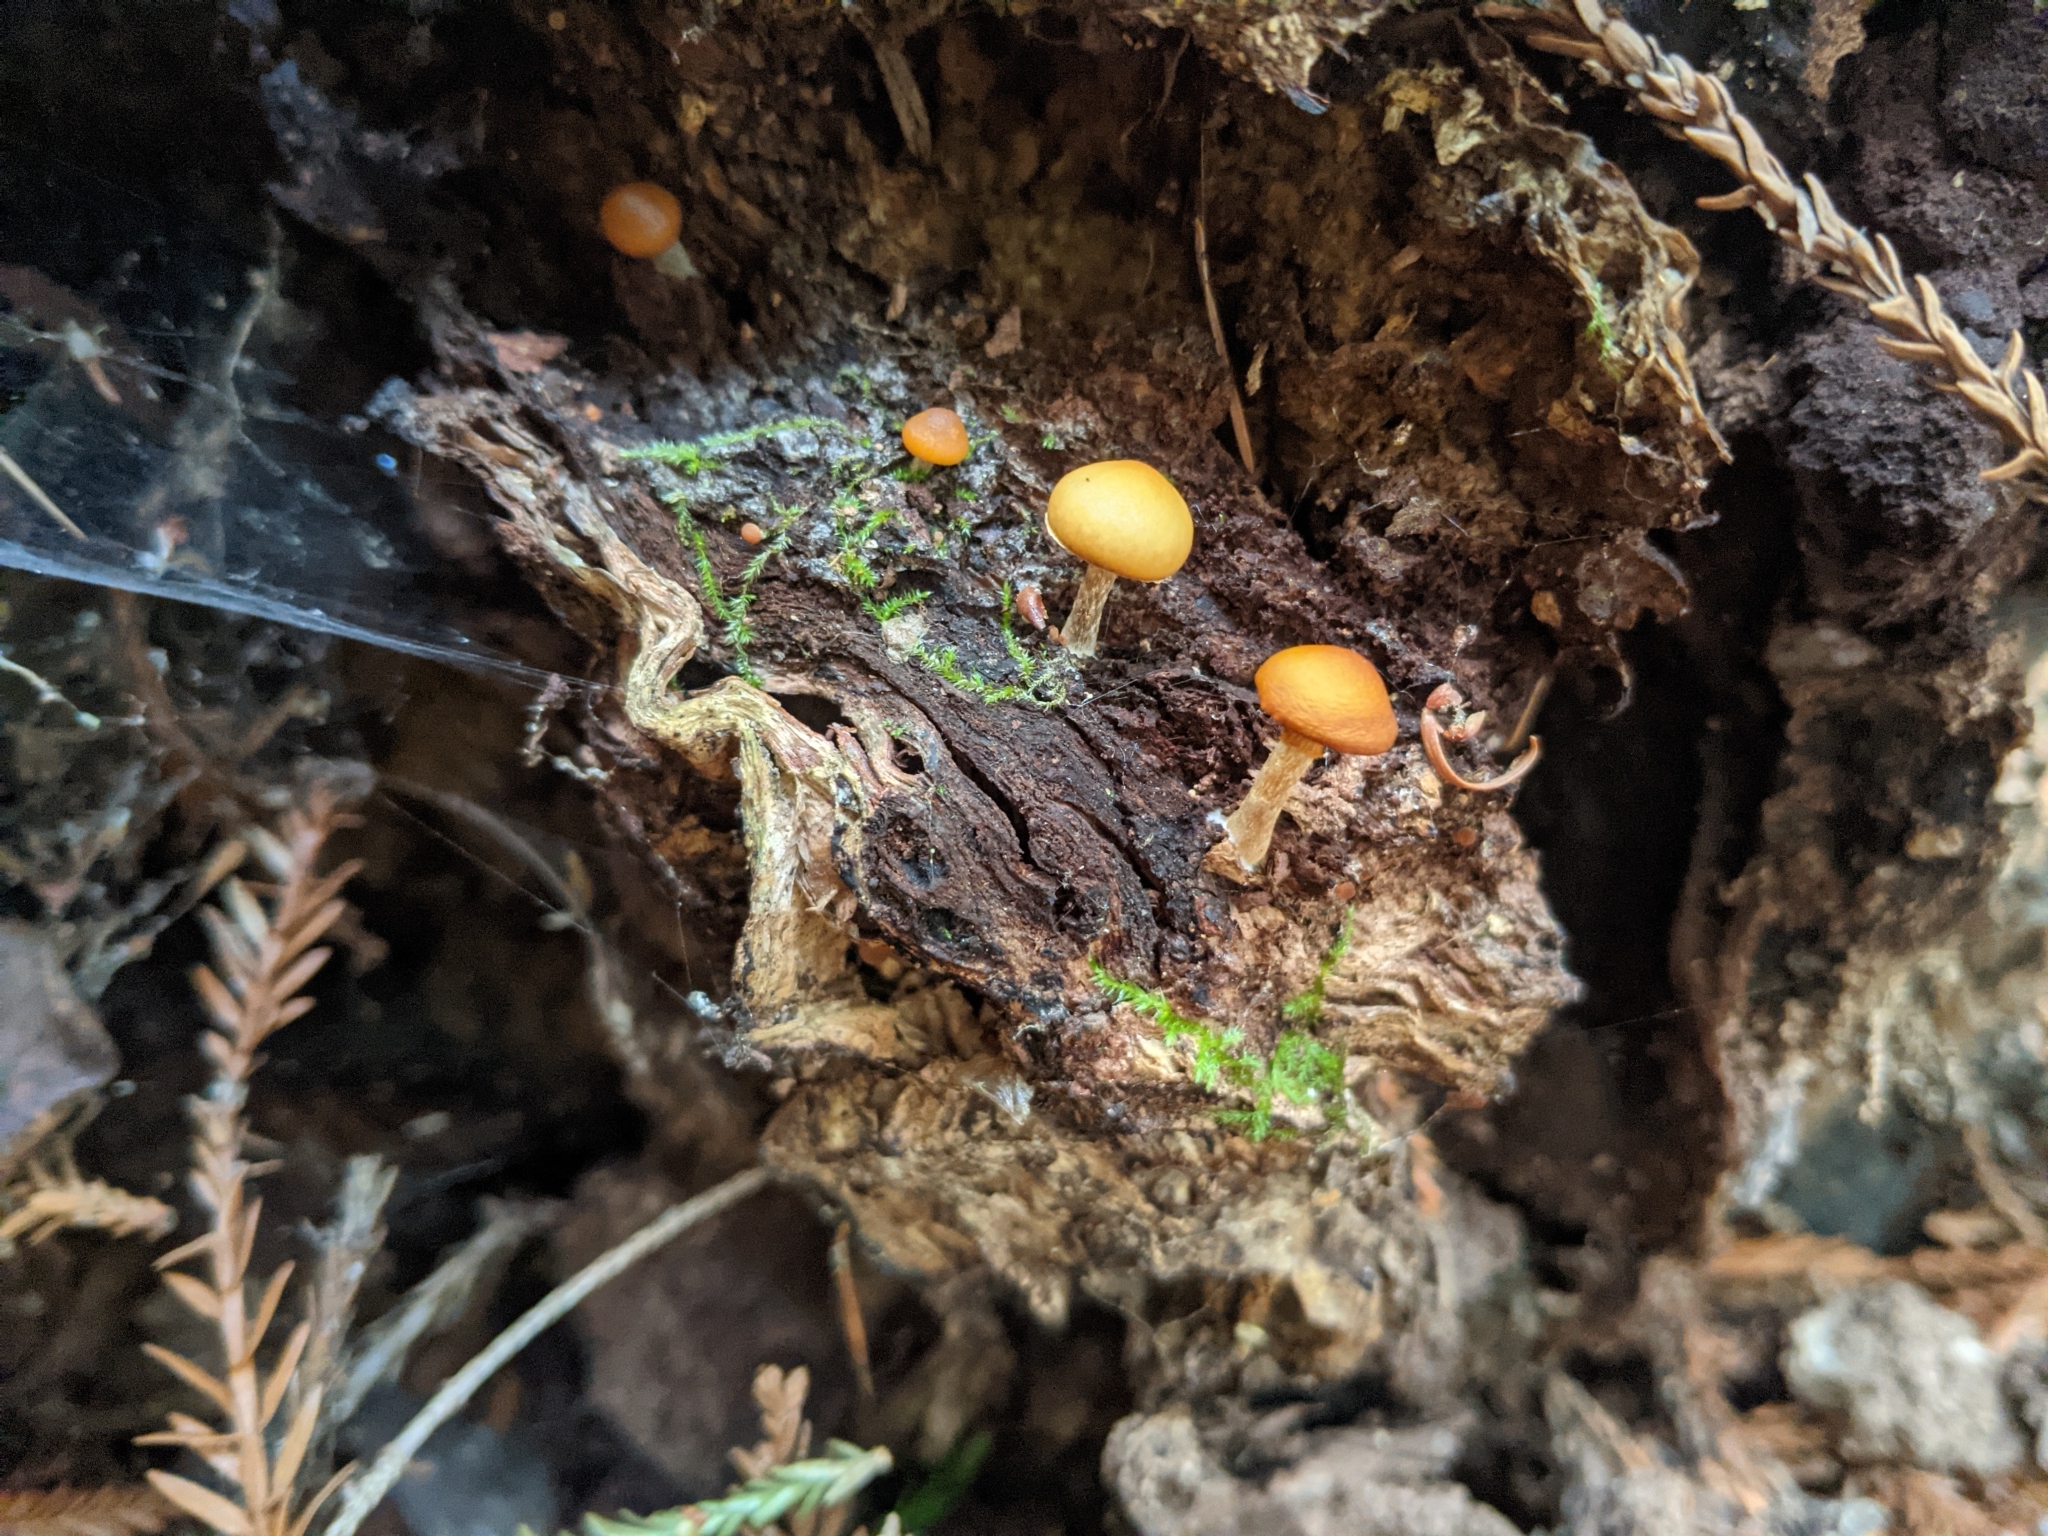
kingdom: Fungi
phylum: Basidiomycota
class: Agaricomycetes
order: Agaricales
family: Hymenogastraceae
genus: Galerina
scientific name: Galerina marginata
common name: Funeral bell
